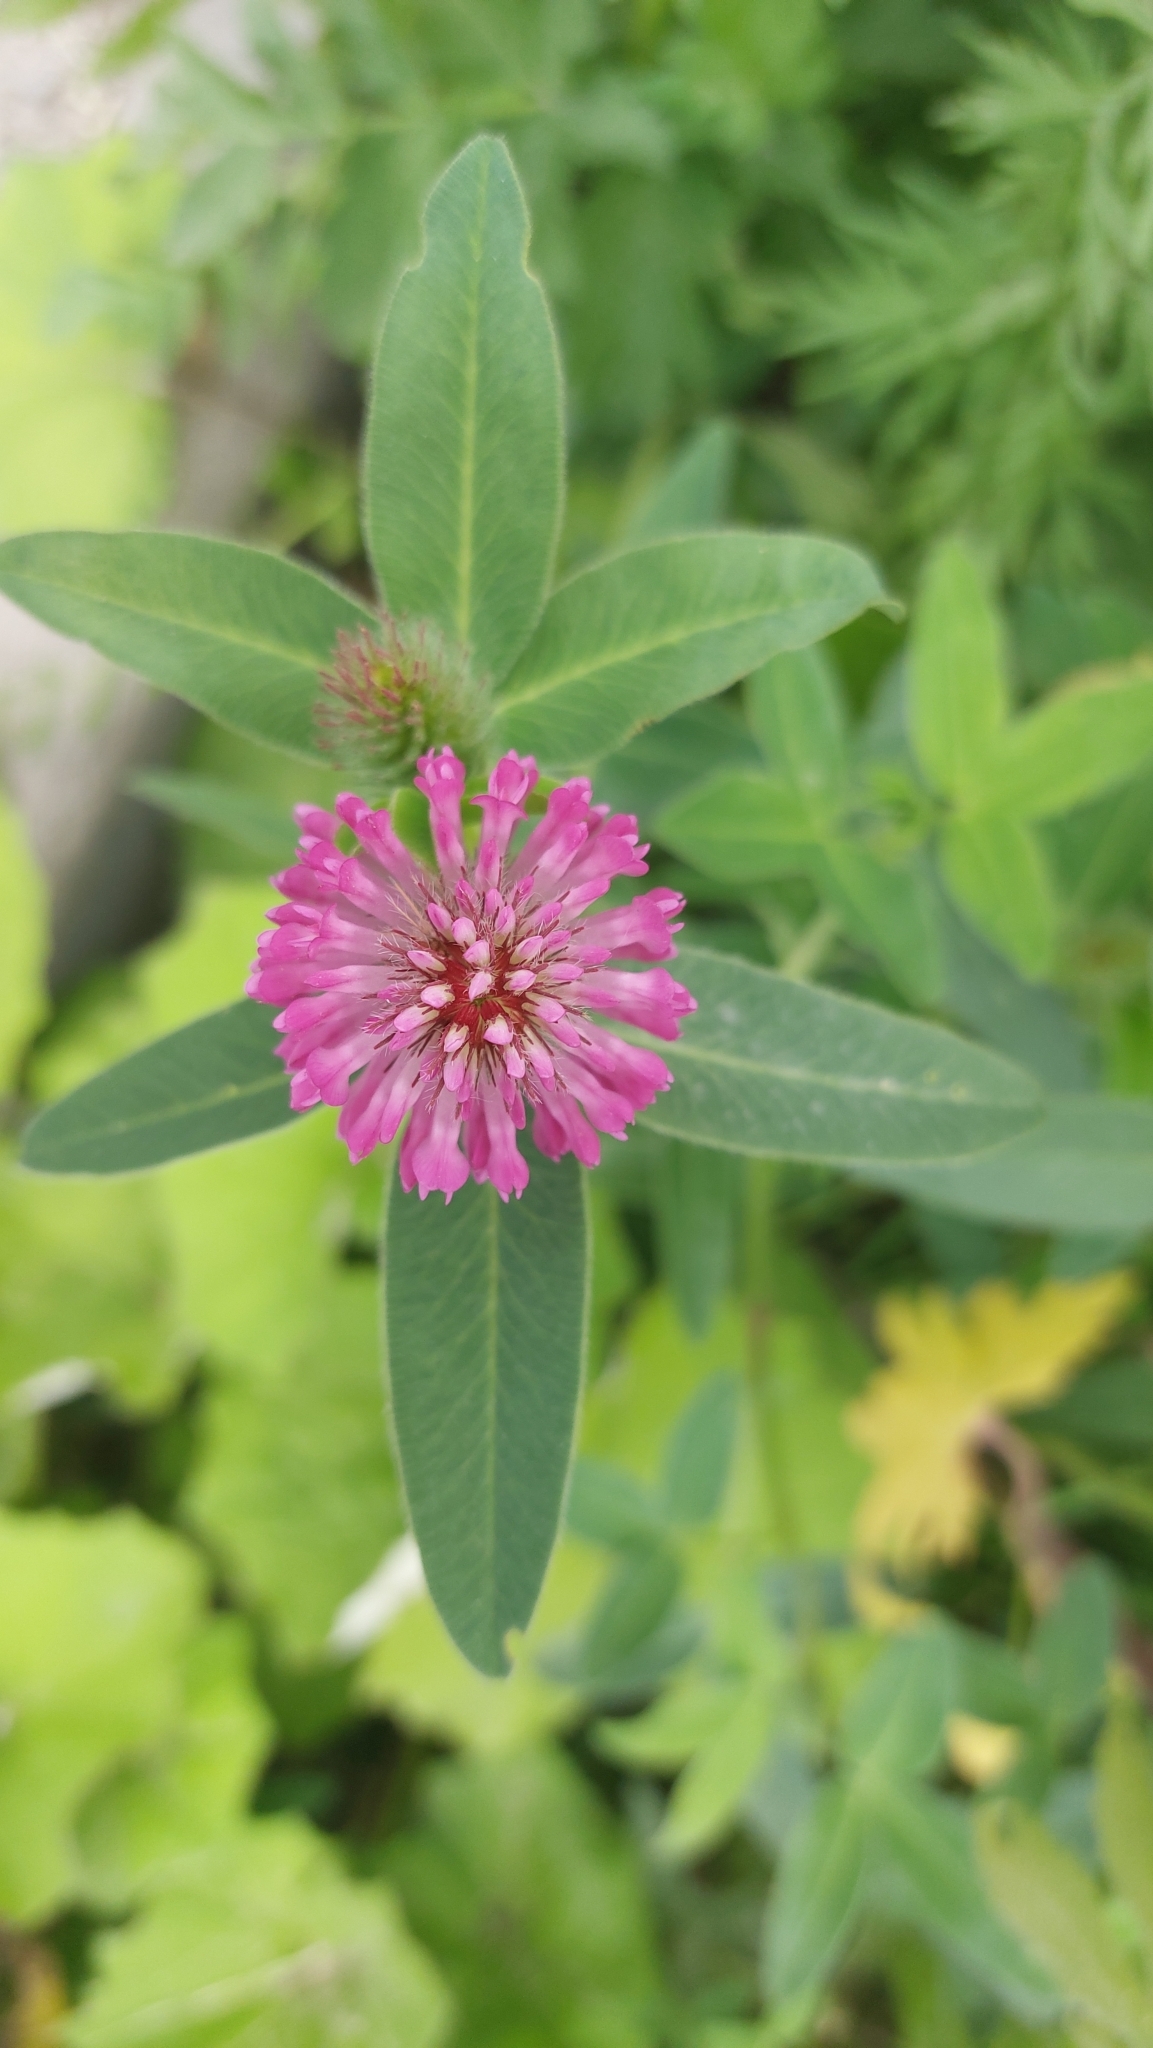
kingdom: Plantae
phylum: Tracheophyta
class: Magnoliopsida
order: Fabales
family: Fabaceae
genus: Trifolium
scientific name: Trifolium medium
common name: Zigzag clover
